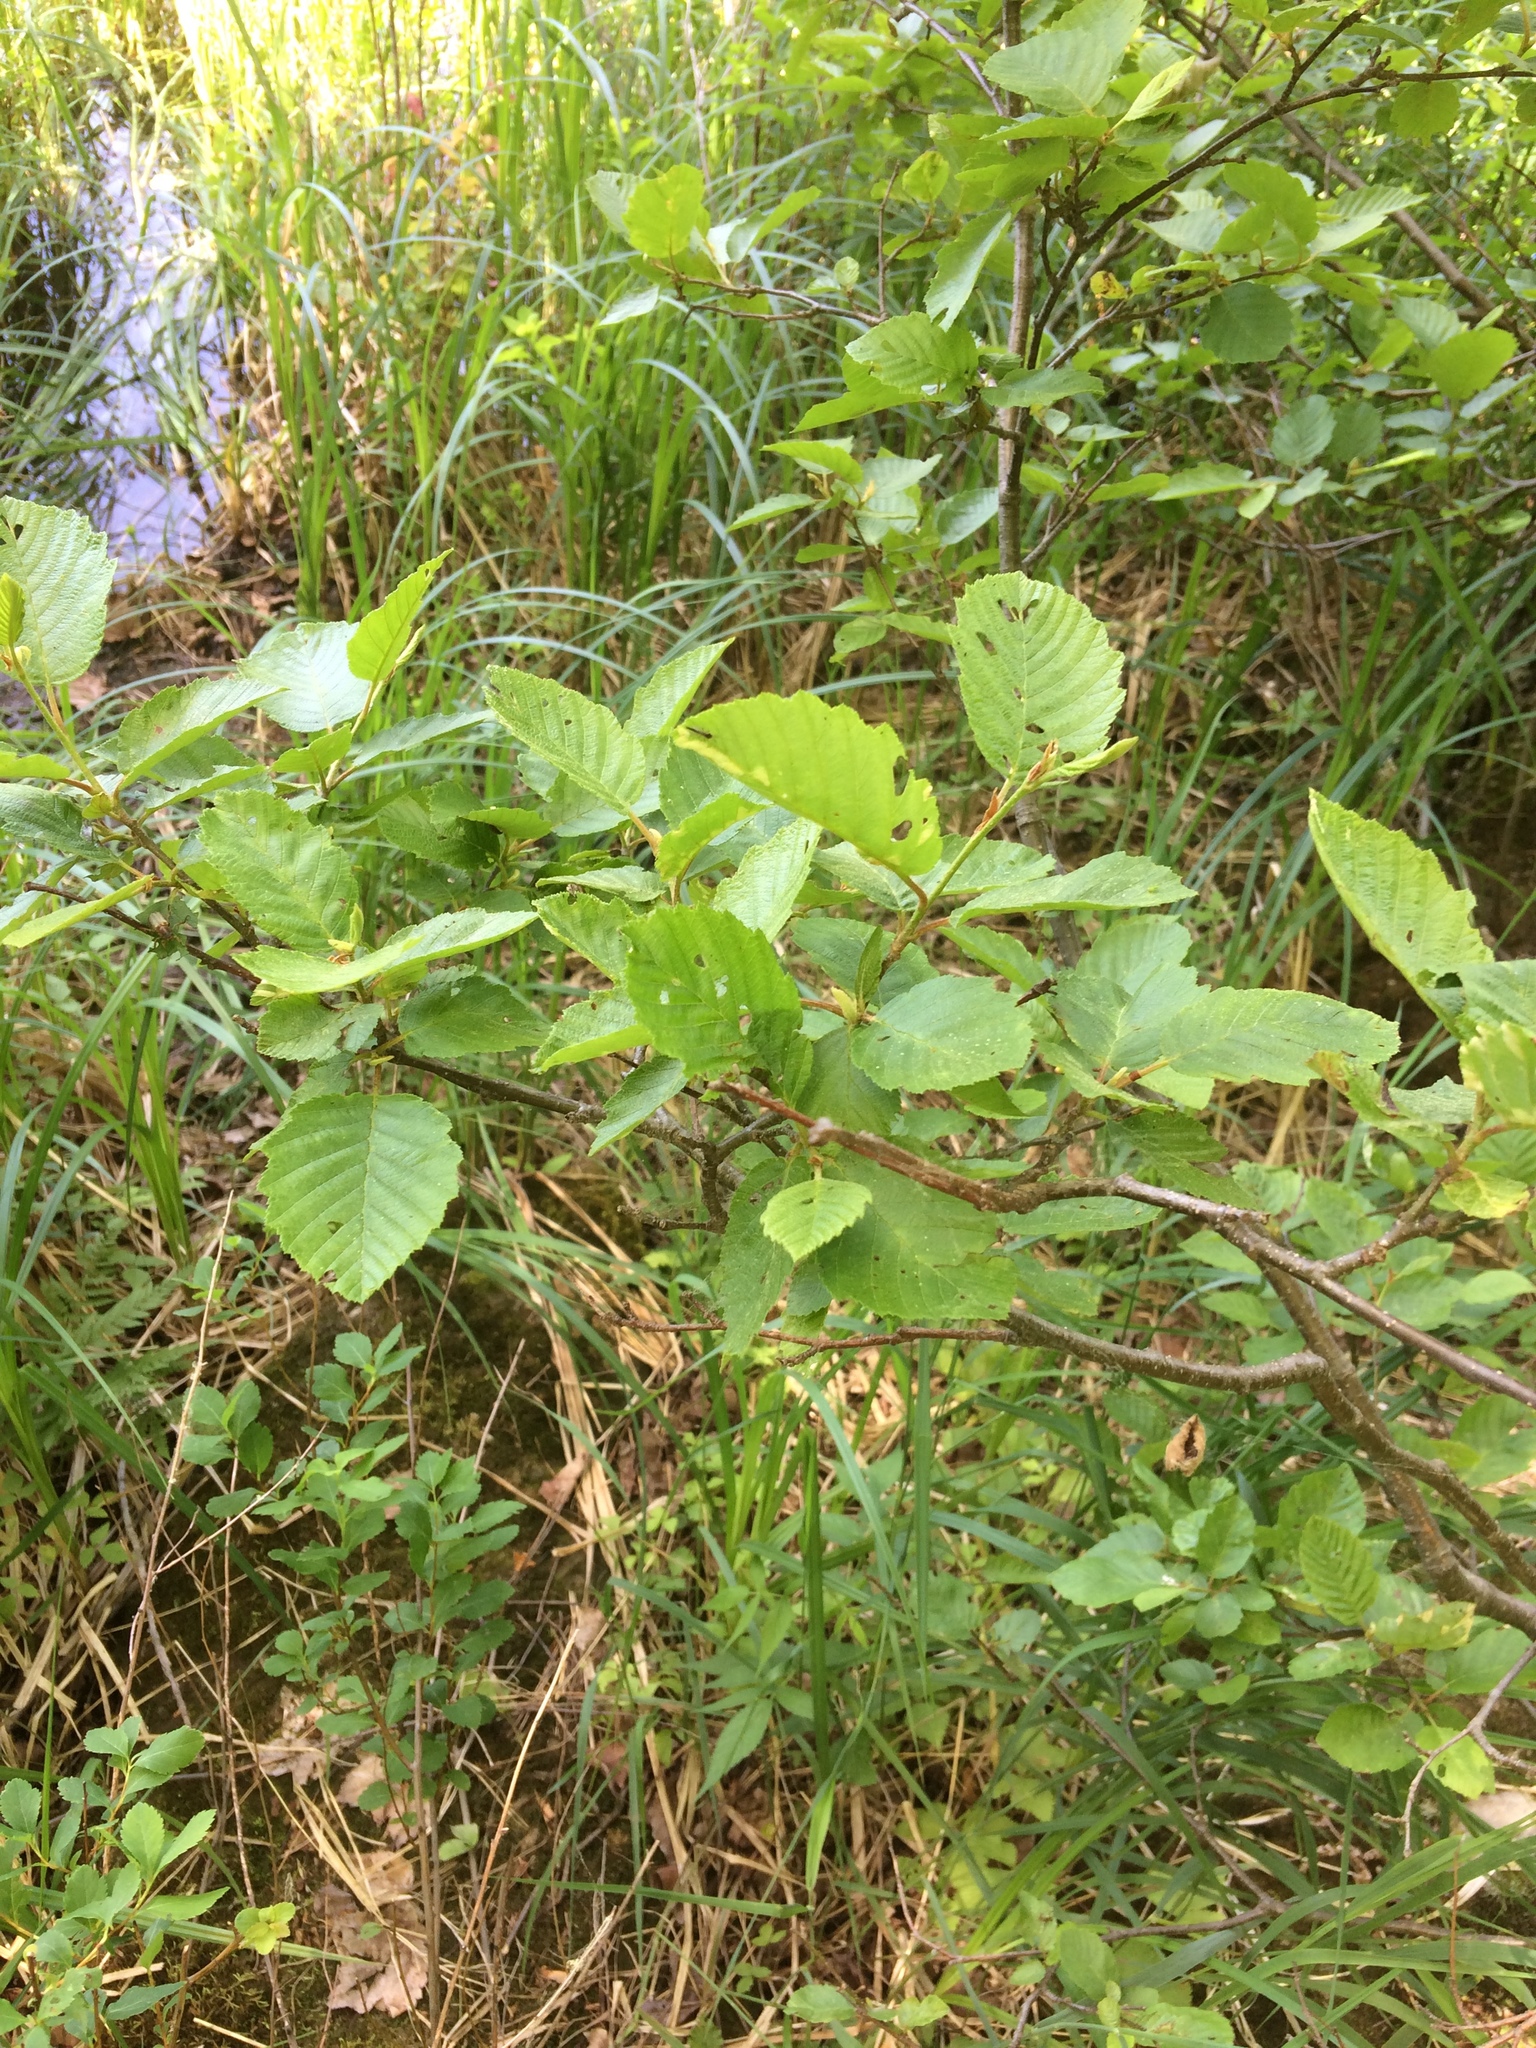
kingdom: Plantae
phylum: Tracheophyta
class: Magnoliopsida
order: Fagales
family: Betulaceae
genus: Alnus
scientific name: Alnus incana
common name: Grey alder
